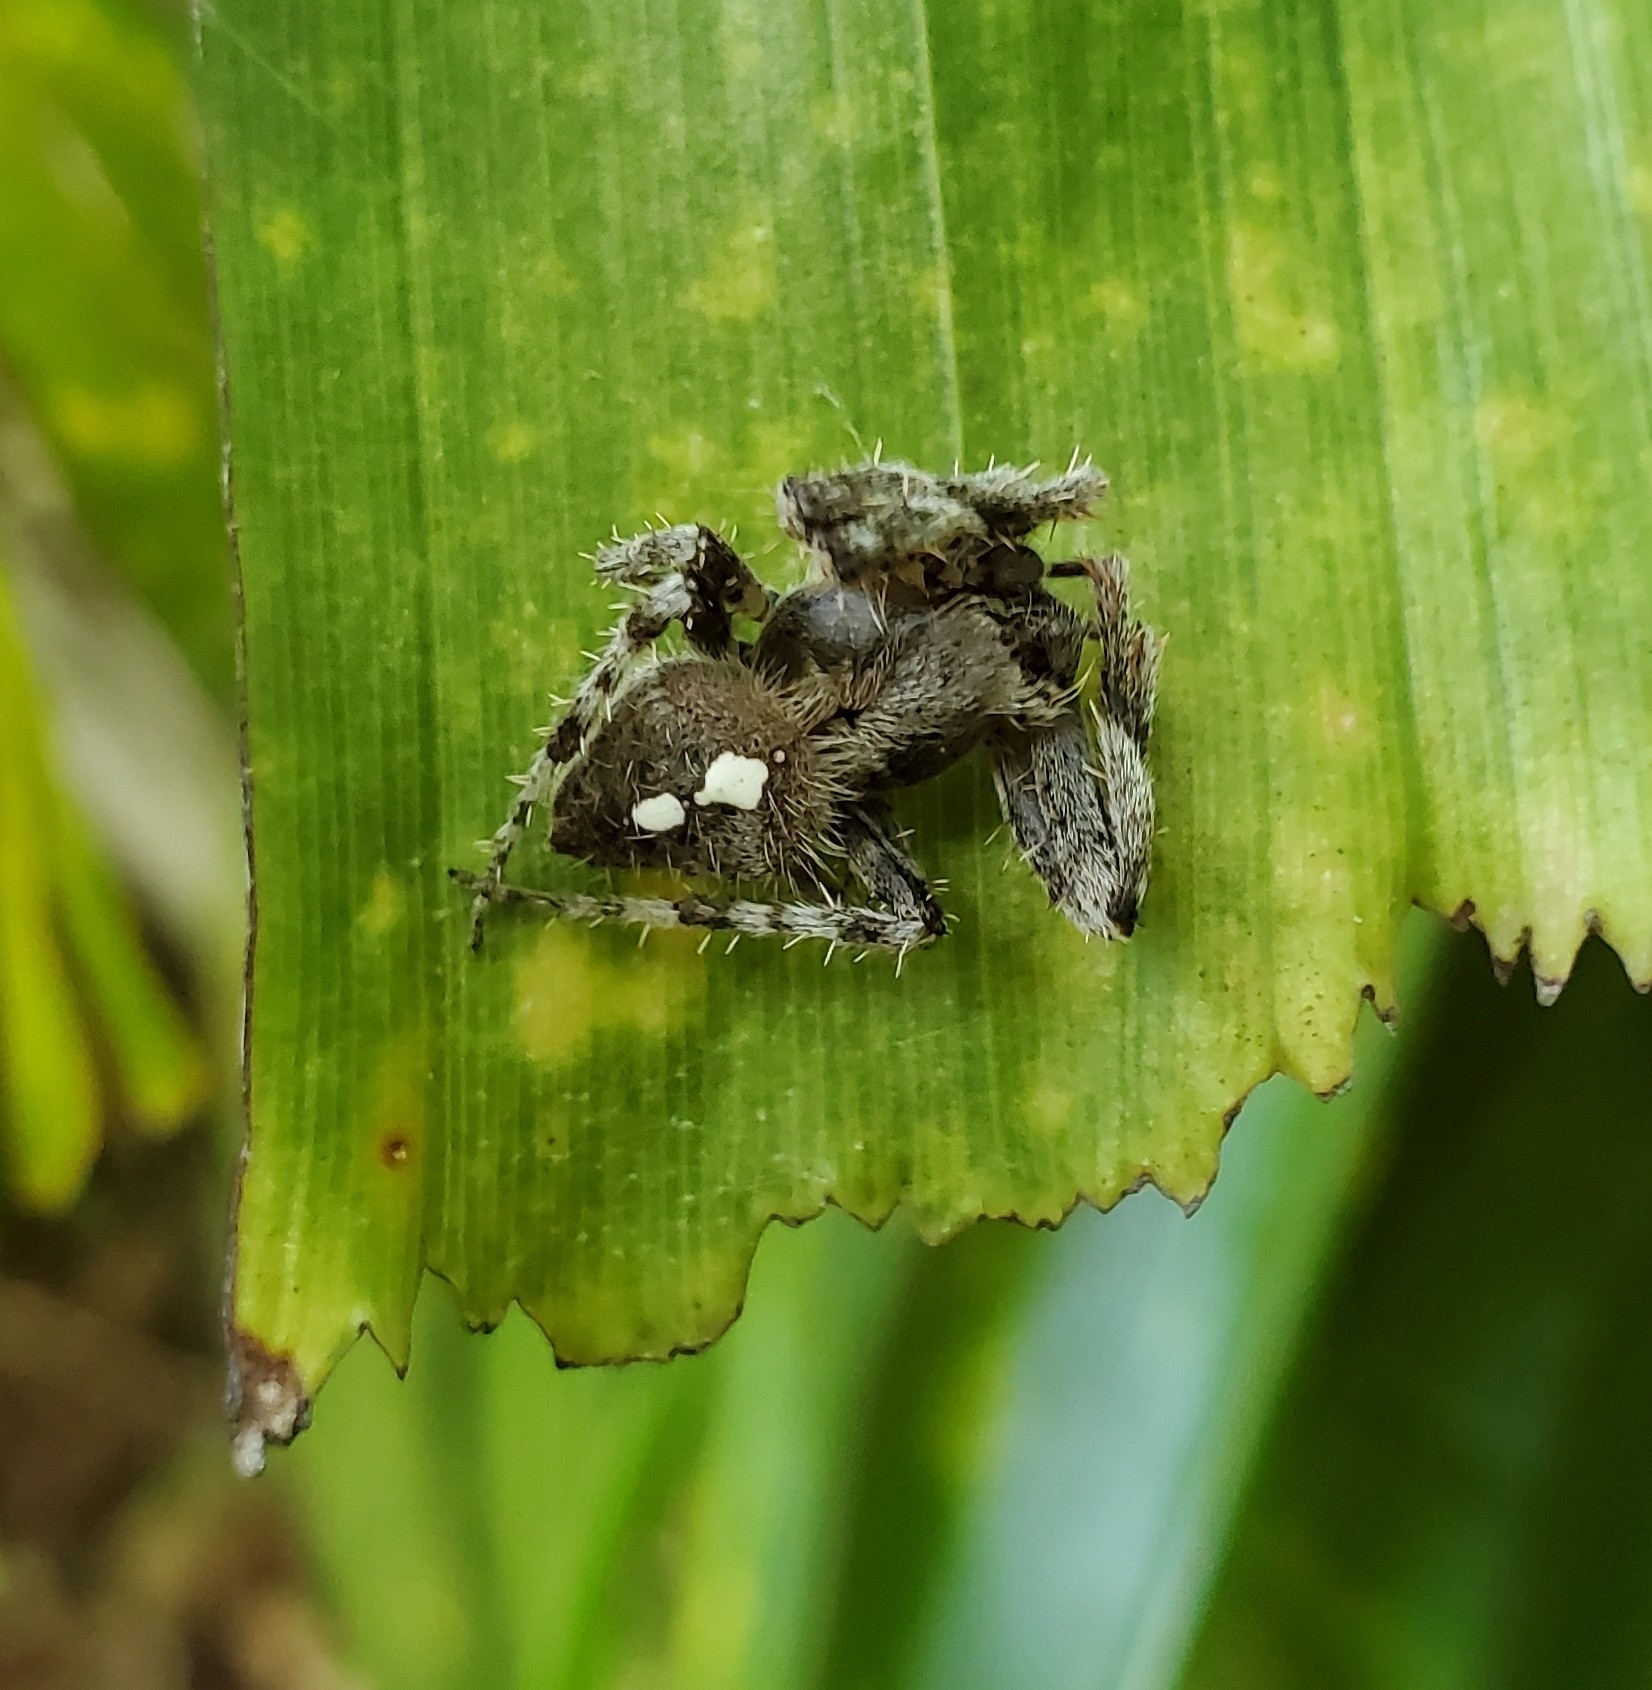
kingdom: Animalia
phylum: Arthropoda
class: Arachnida
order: Araneae
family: Araneidae
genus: Eriophora
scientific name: Eriophora edax
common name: Orb weavers
